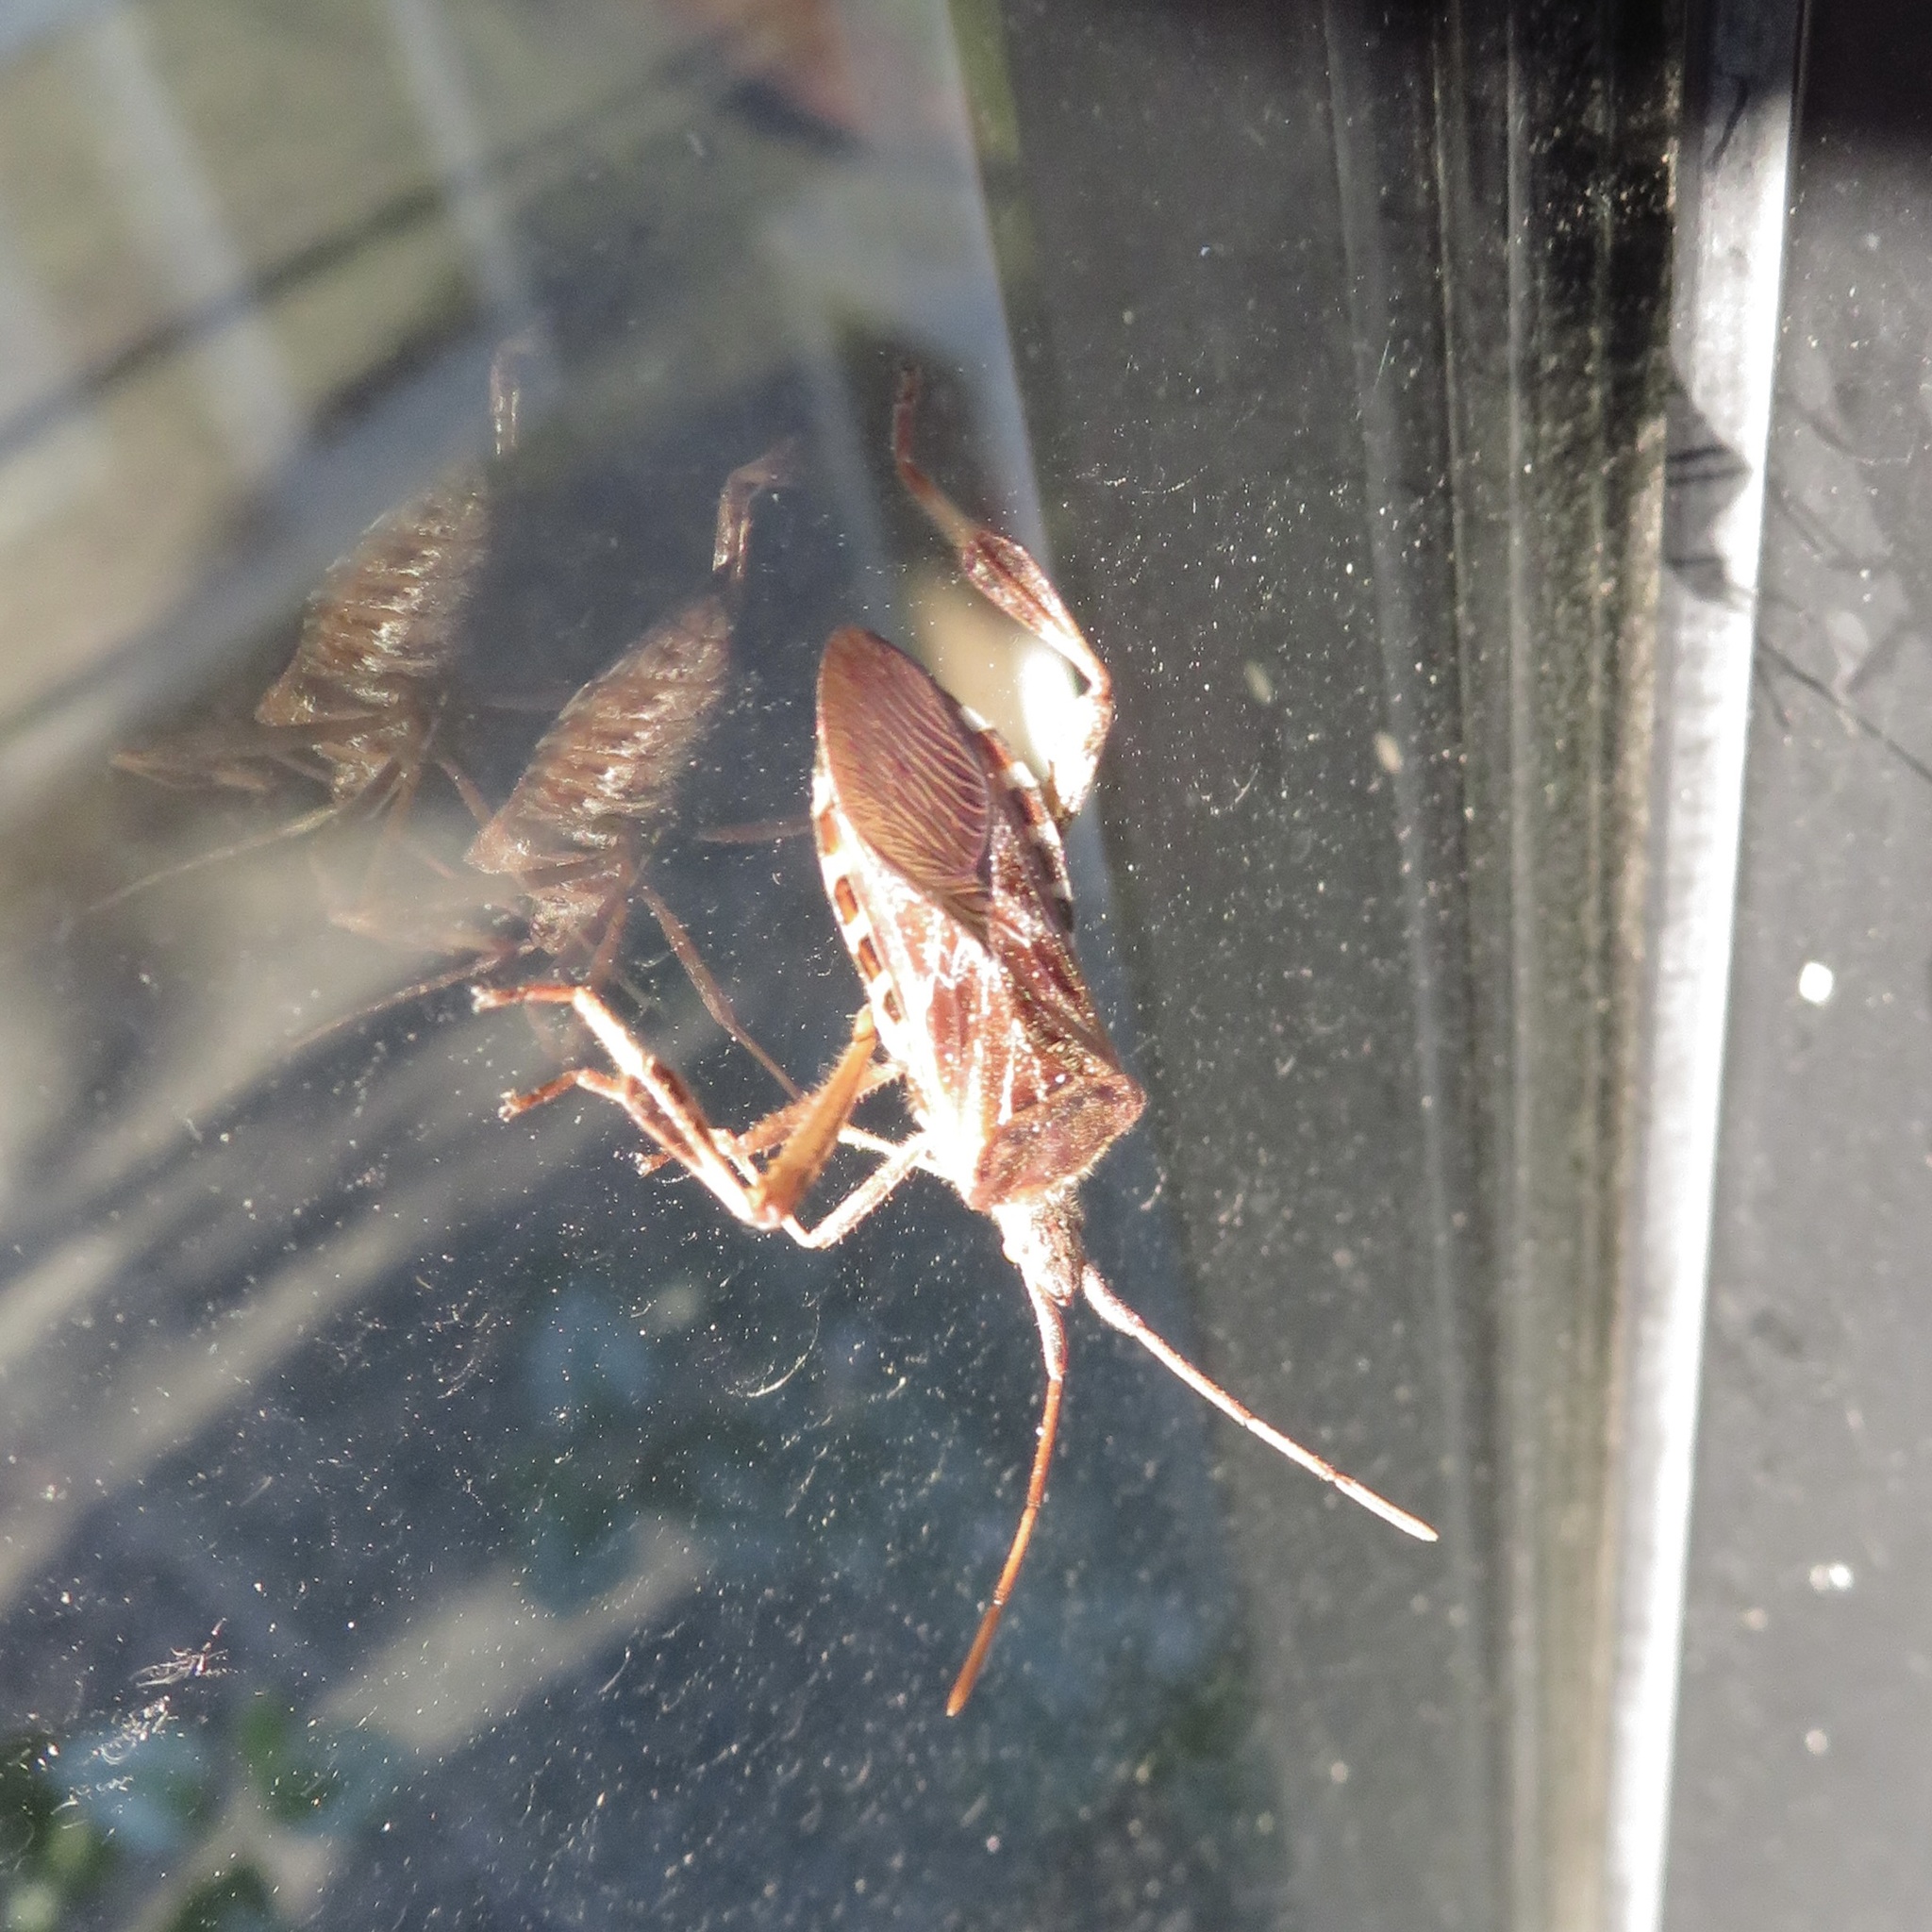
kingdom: Animalia
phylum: Arthropoda
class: Insecta
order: Hemiptera
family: Coreidae
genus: Leptoglossus
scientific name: Leptoglossus occidentalis
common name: Western conifer-seed bug
